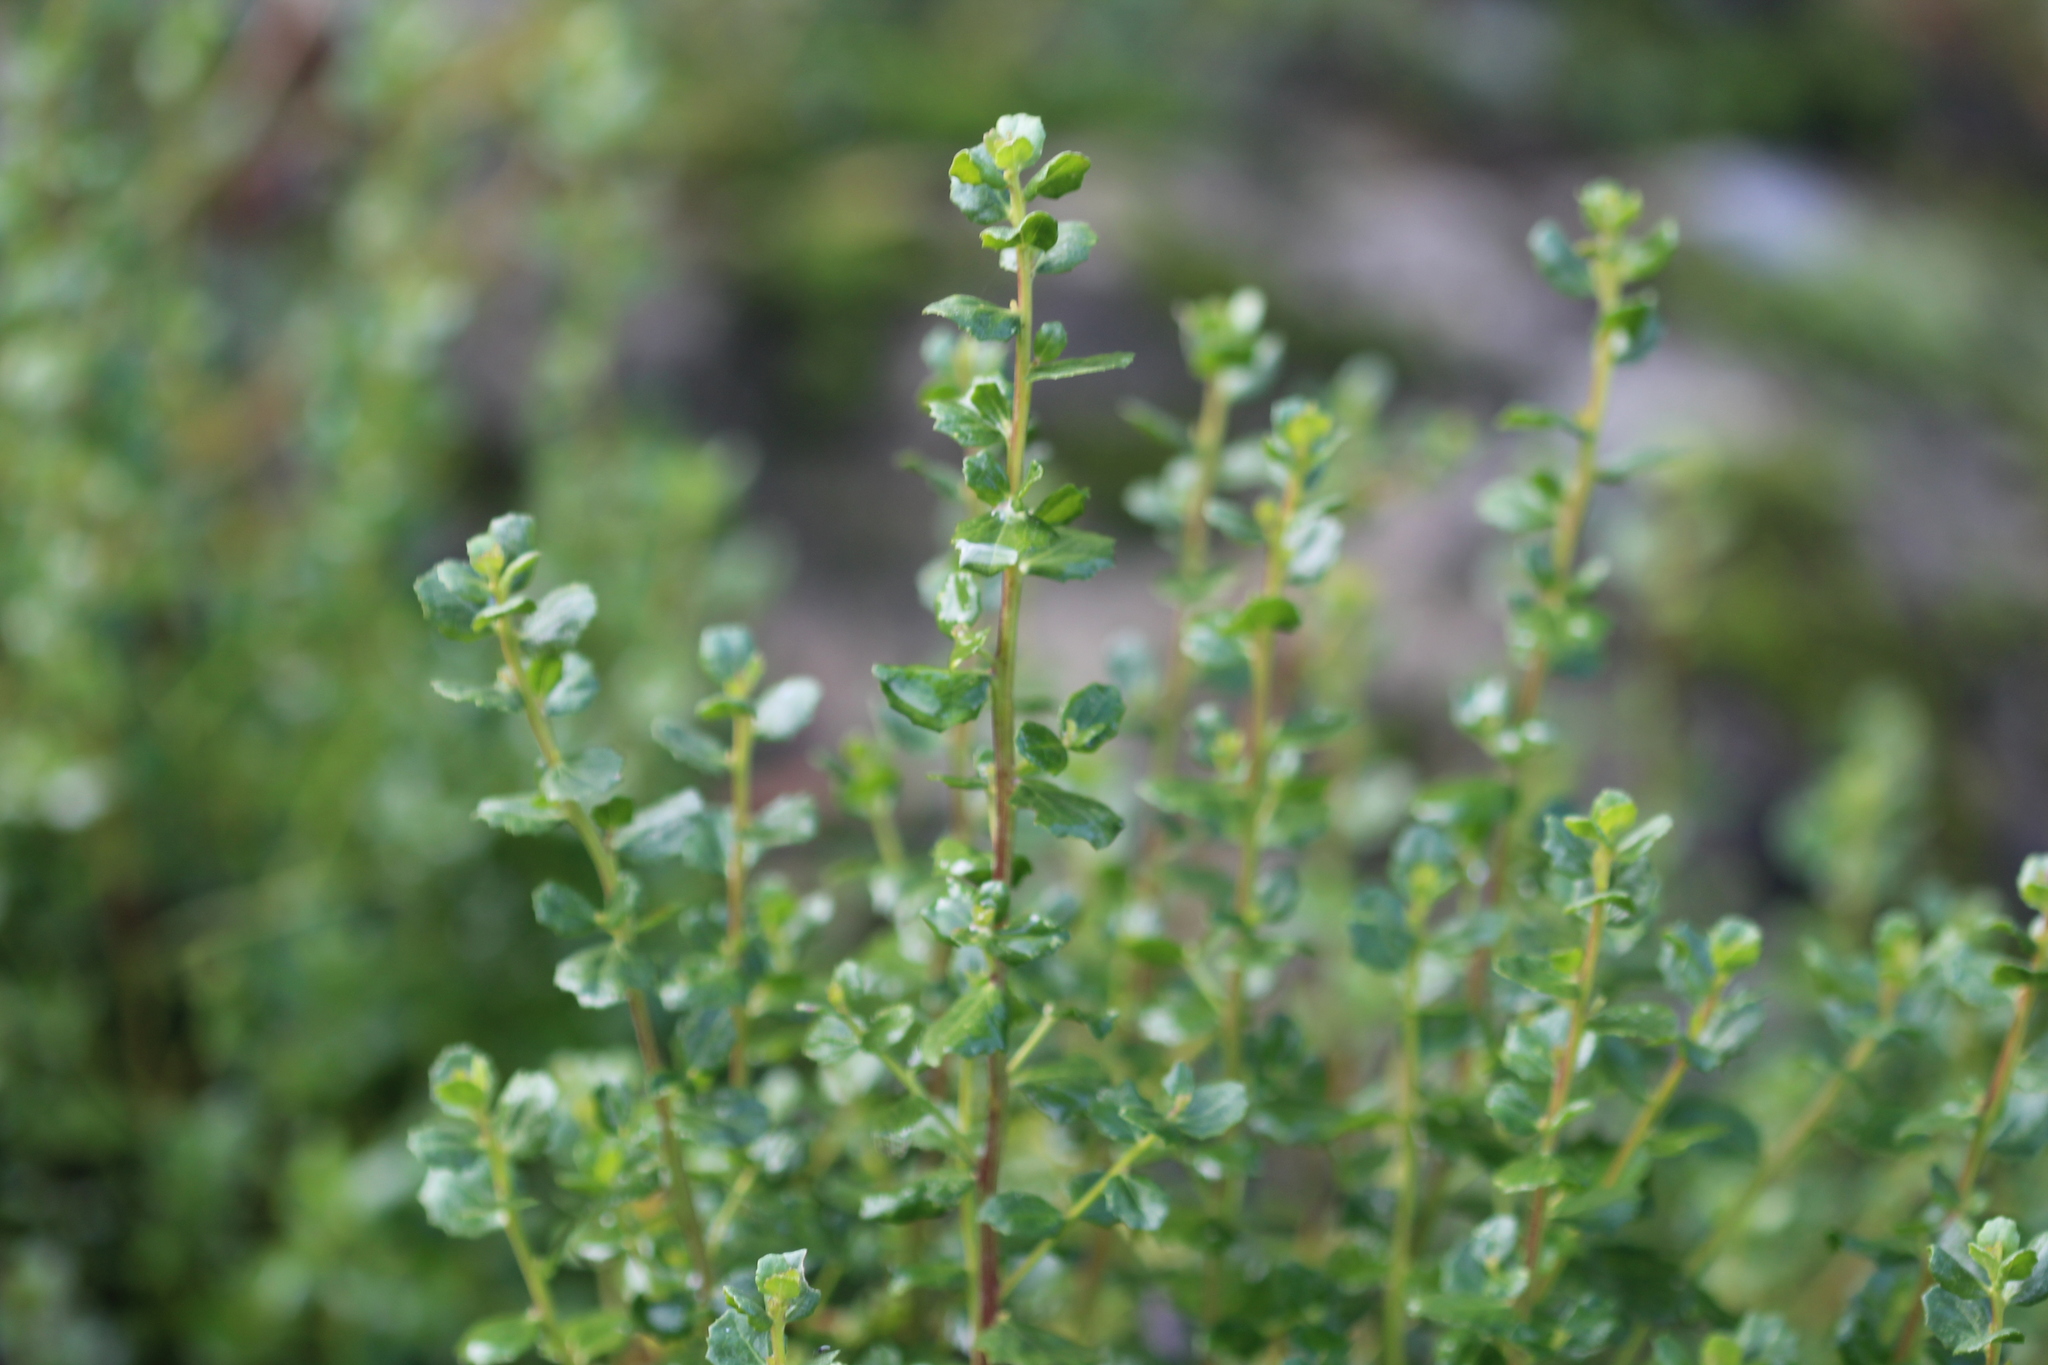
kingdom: Plantae
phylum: Tracheophyta
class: Magnoliopsida
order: Asterales
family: Asteraceae
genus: Baccharis
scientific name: Baccharis pilularis
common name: Coyotebrush
